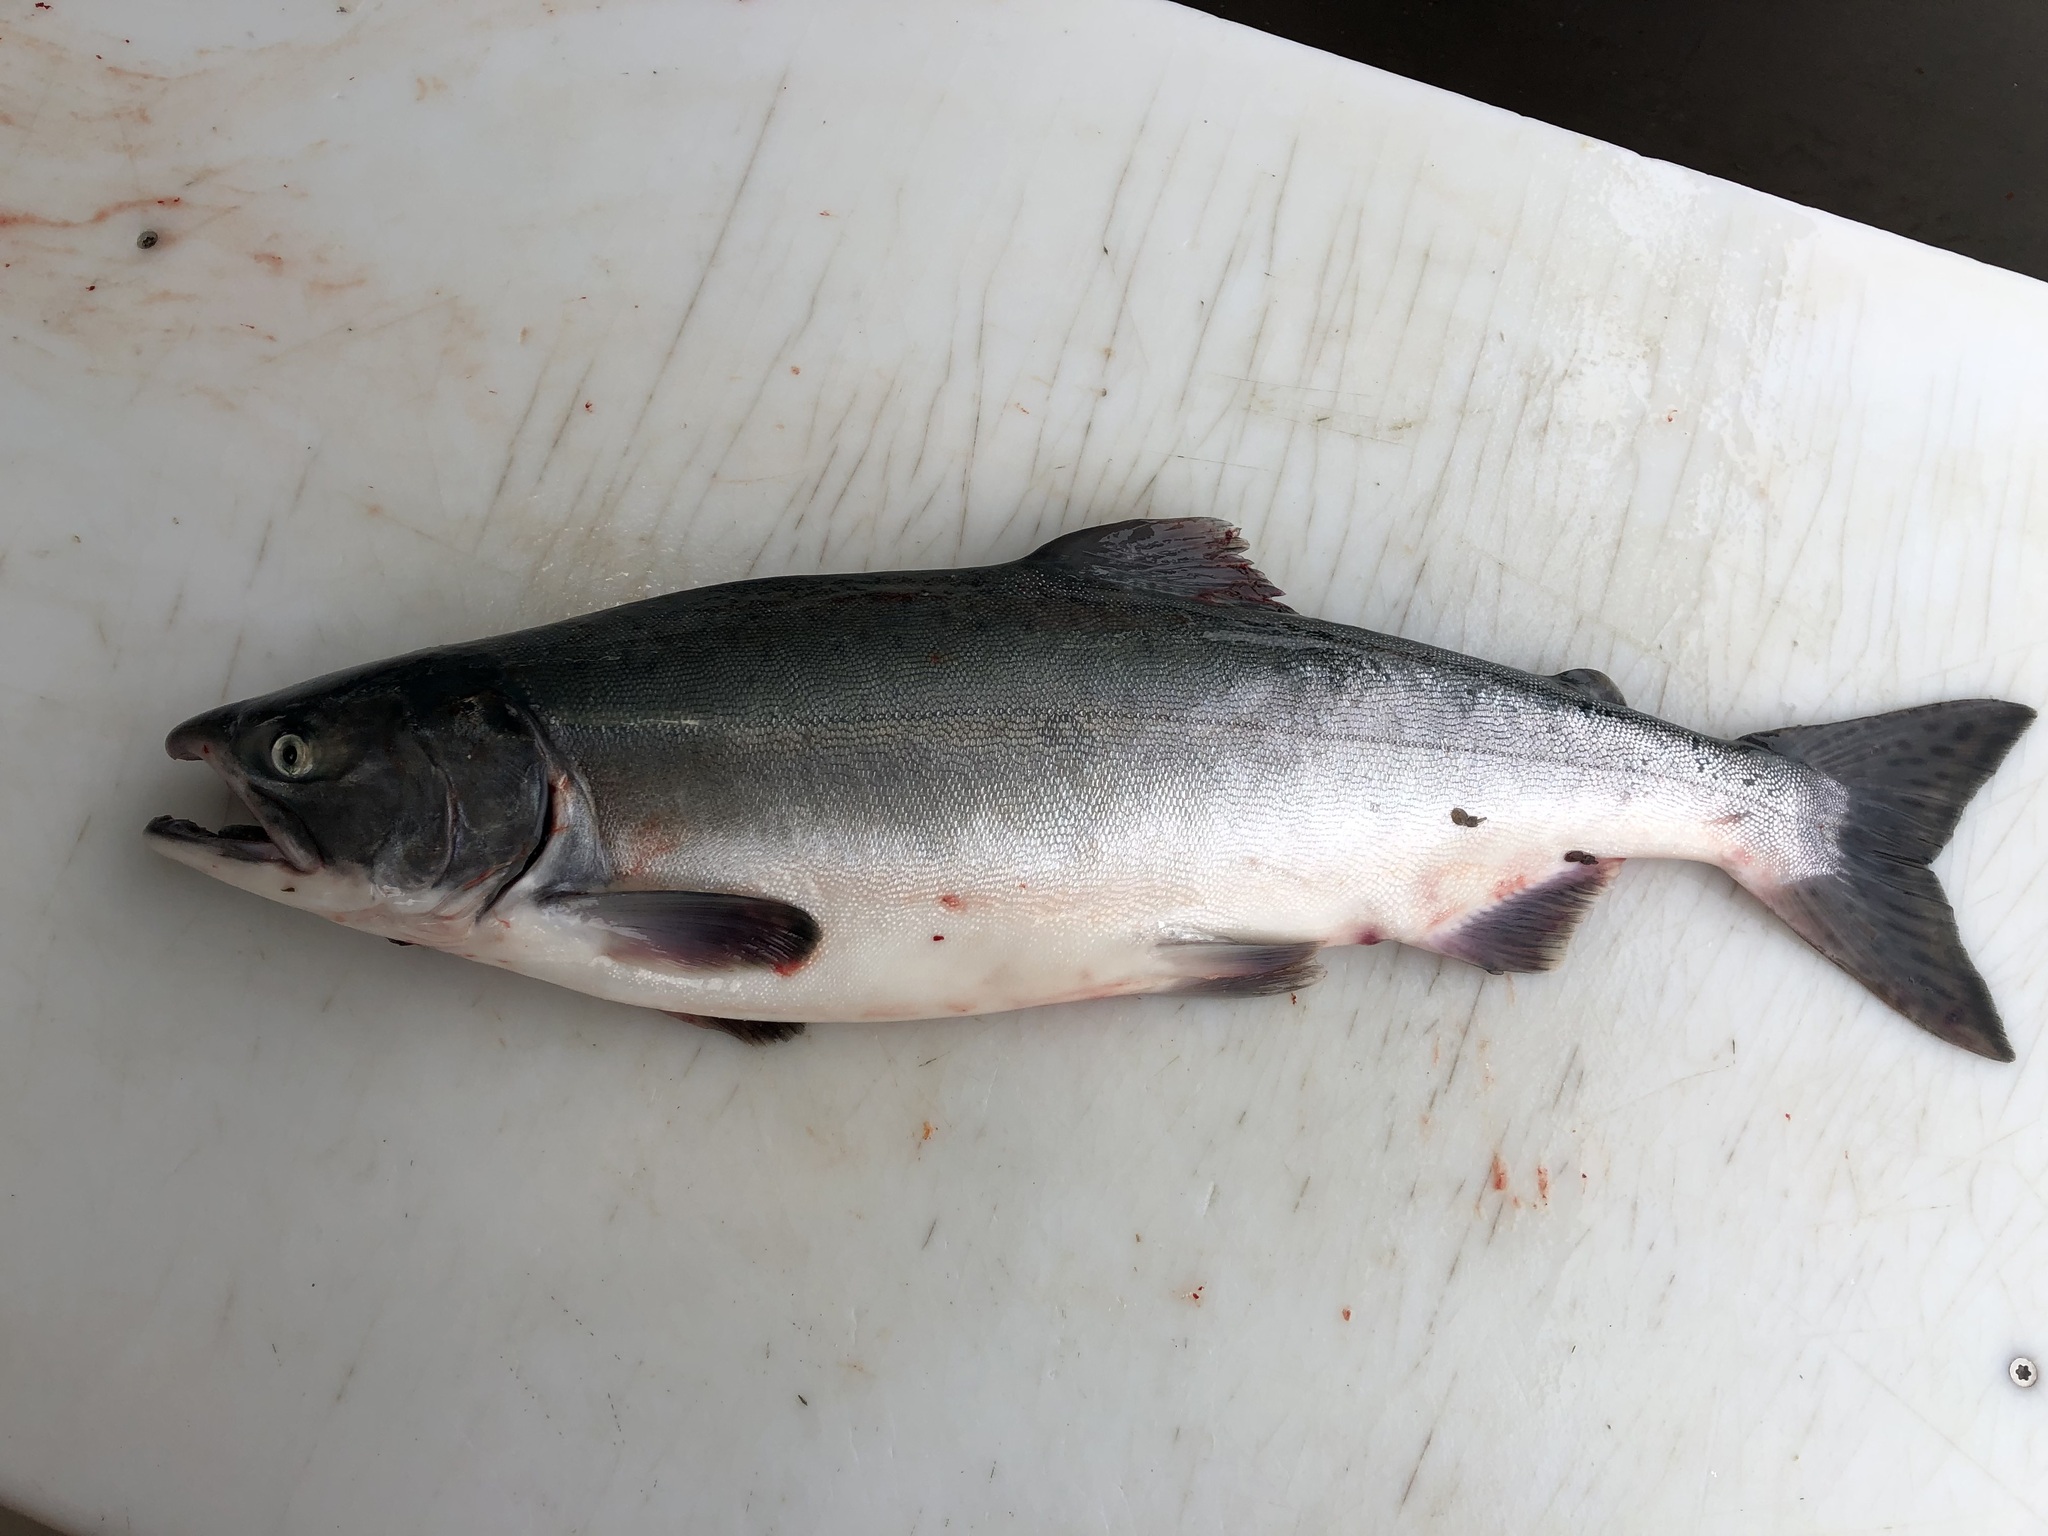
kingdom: Animalia
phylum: Chordata
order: Salmoniformes
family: Salmonidae
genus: Oncorhynchus
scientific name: Oncorhynchus gorbuscha
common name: Humpback salmon
